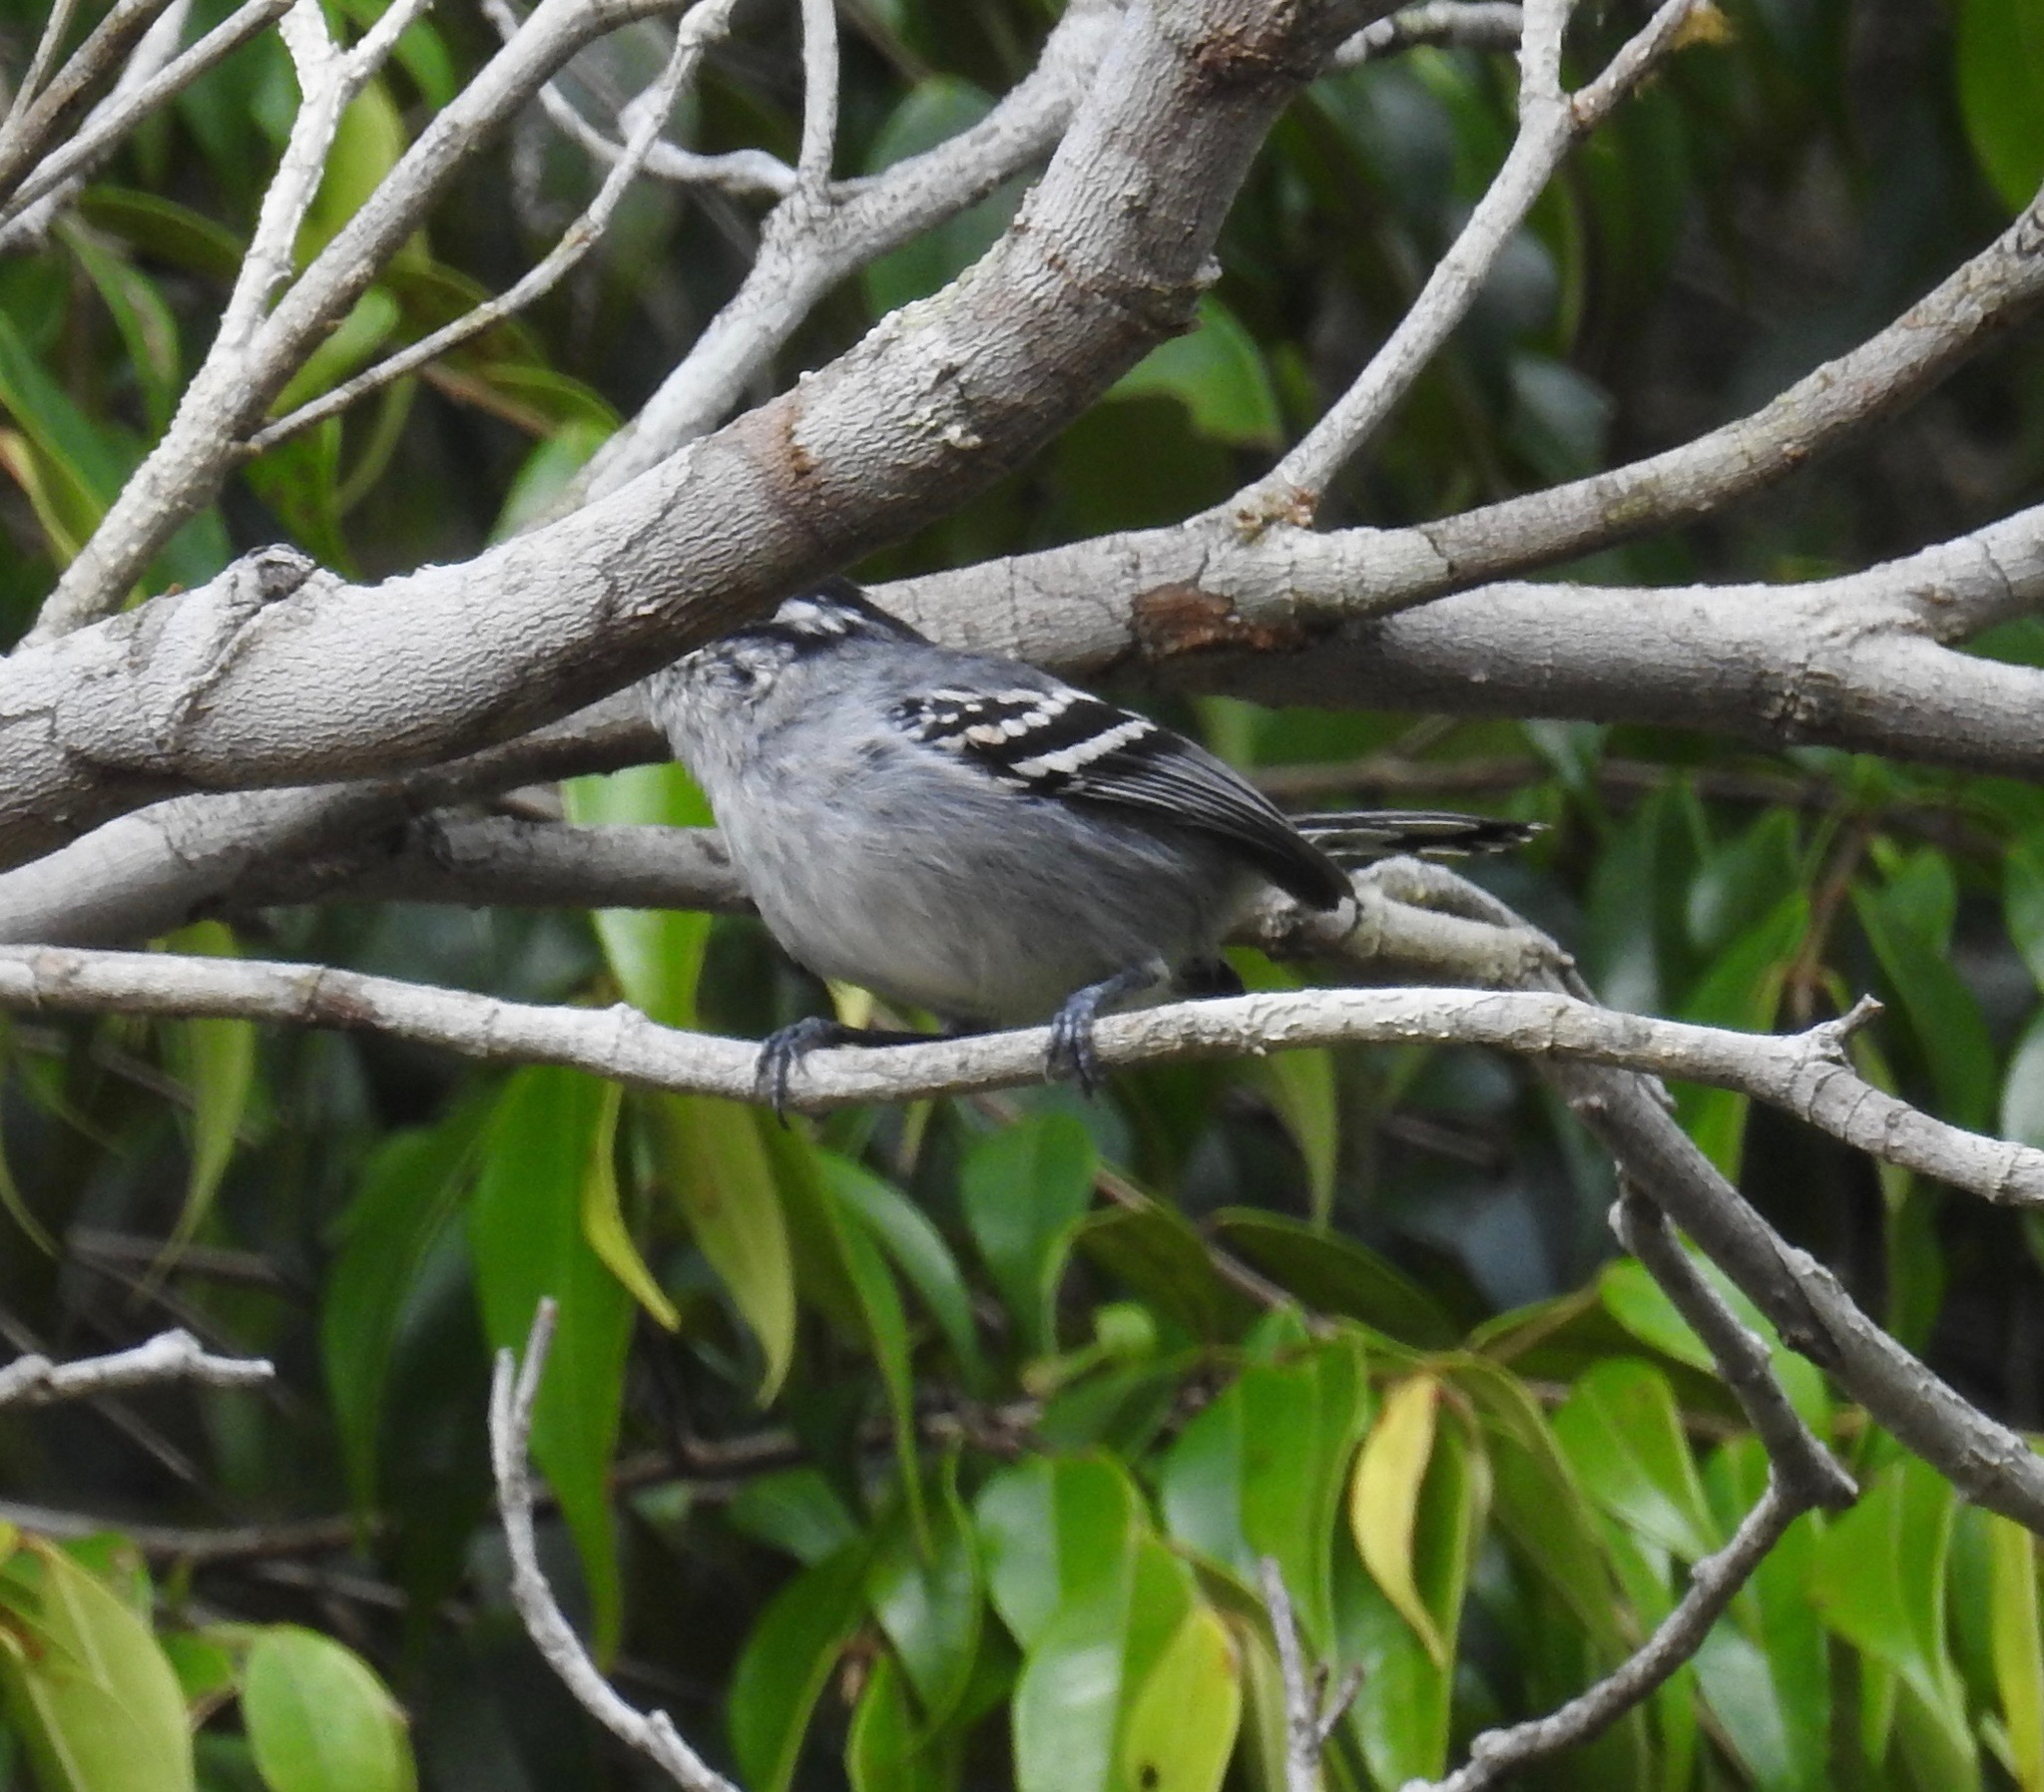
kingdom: Animalia
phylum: Chordata
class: Aves
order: Passeriformes
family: Thamnophilidae
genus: Herpsilochmus
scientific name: Herpsilochmus pileatus
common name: Bahia antwren
